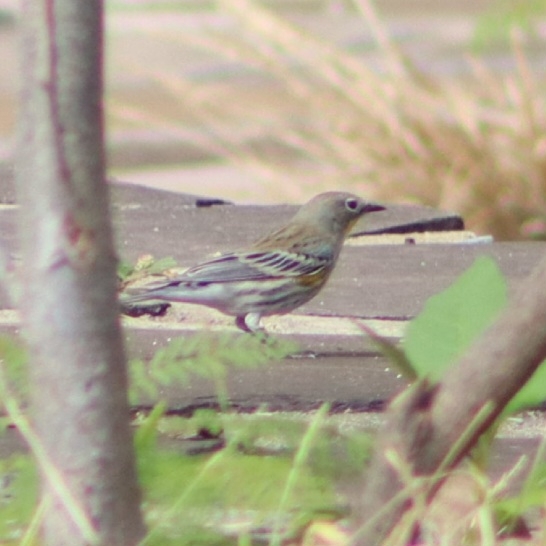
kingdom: Animalia
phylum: Chordata
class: Aves
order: Passeriformes
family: Parulidae
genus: Setophaga
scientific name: Setophaga coronata
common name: Myrtle warbler
